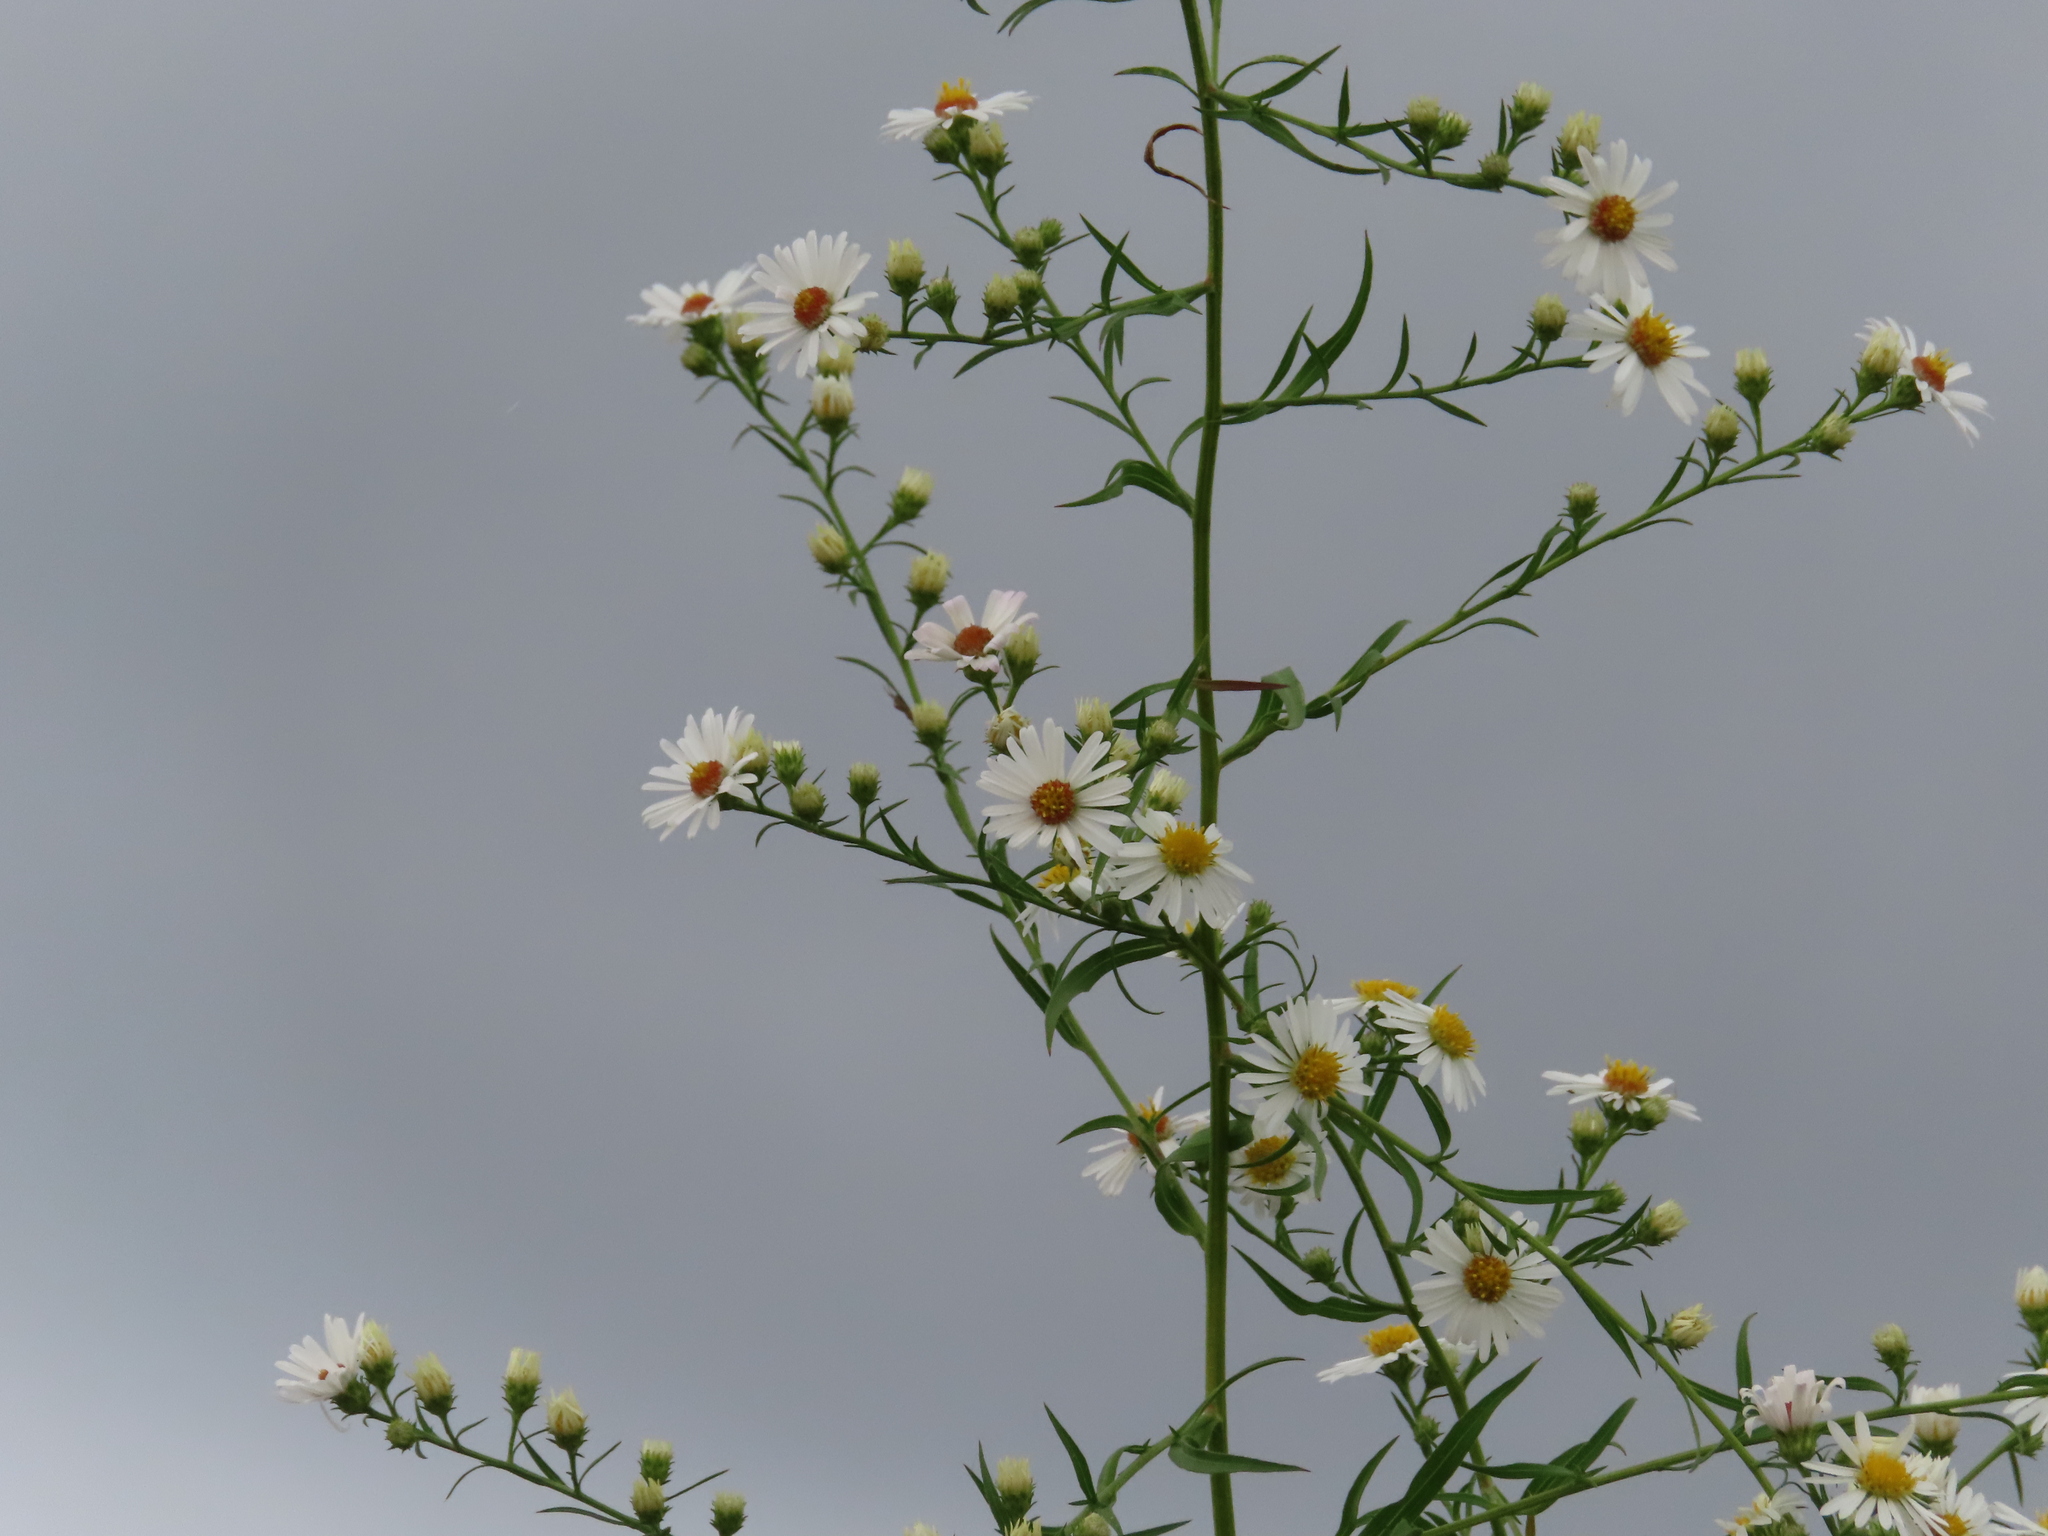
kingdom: Plantae
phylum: Tracheophyta
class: Magnoliopsida
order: Asterales
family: Asteraceae
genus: Symphyotrichum
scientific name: Symphyotrichum pilosum
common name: Awl aster
